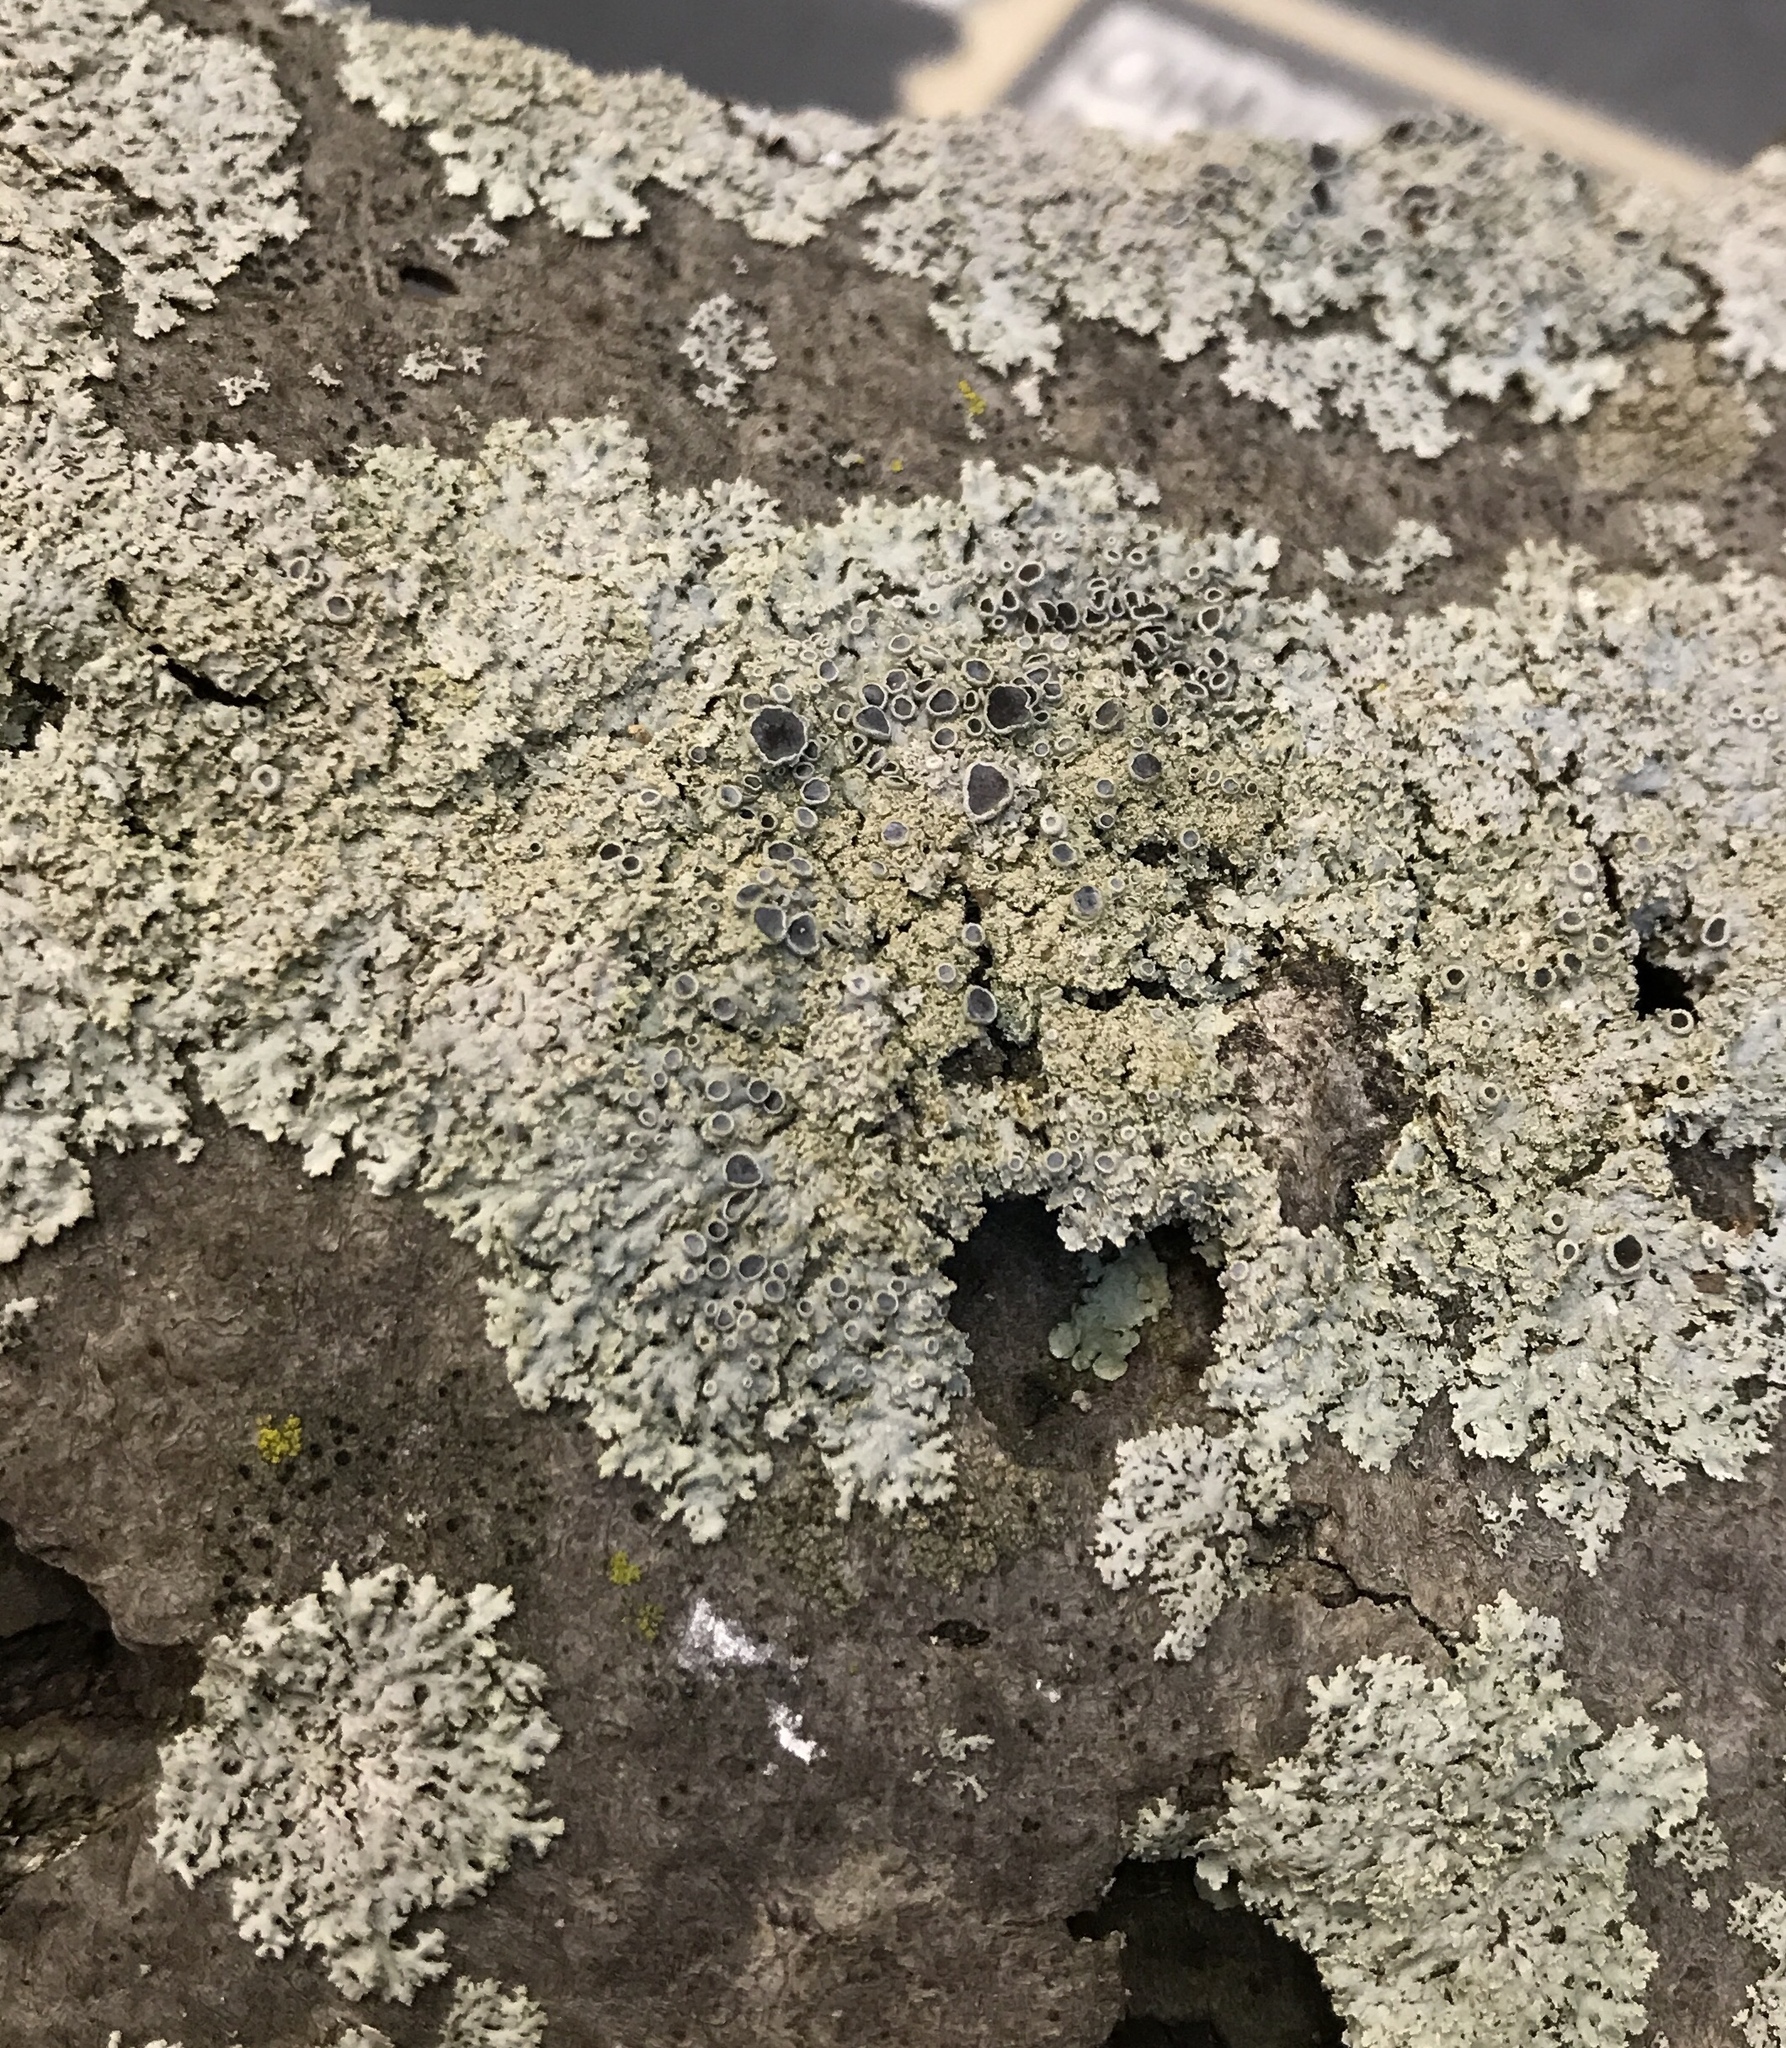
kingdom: Fungi
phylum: Ascomycota
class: Lecanoromycetes
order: Caliciales
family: Physciaceae
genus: Physcia
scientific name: Physcia millegrana
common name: Rosette lichen
